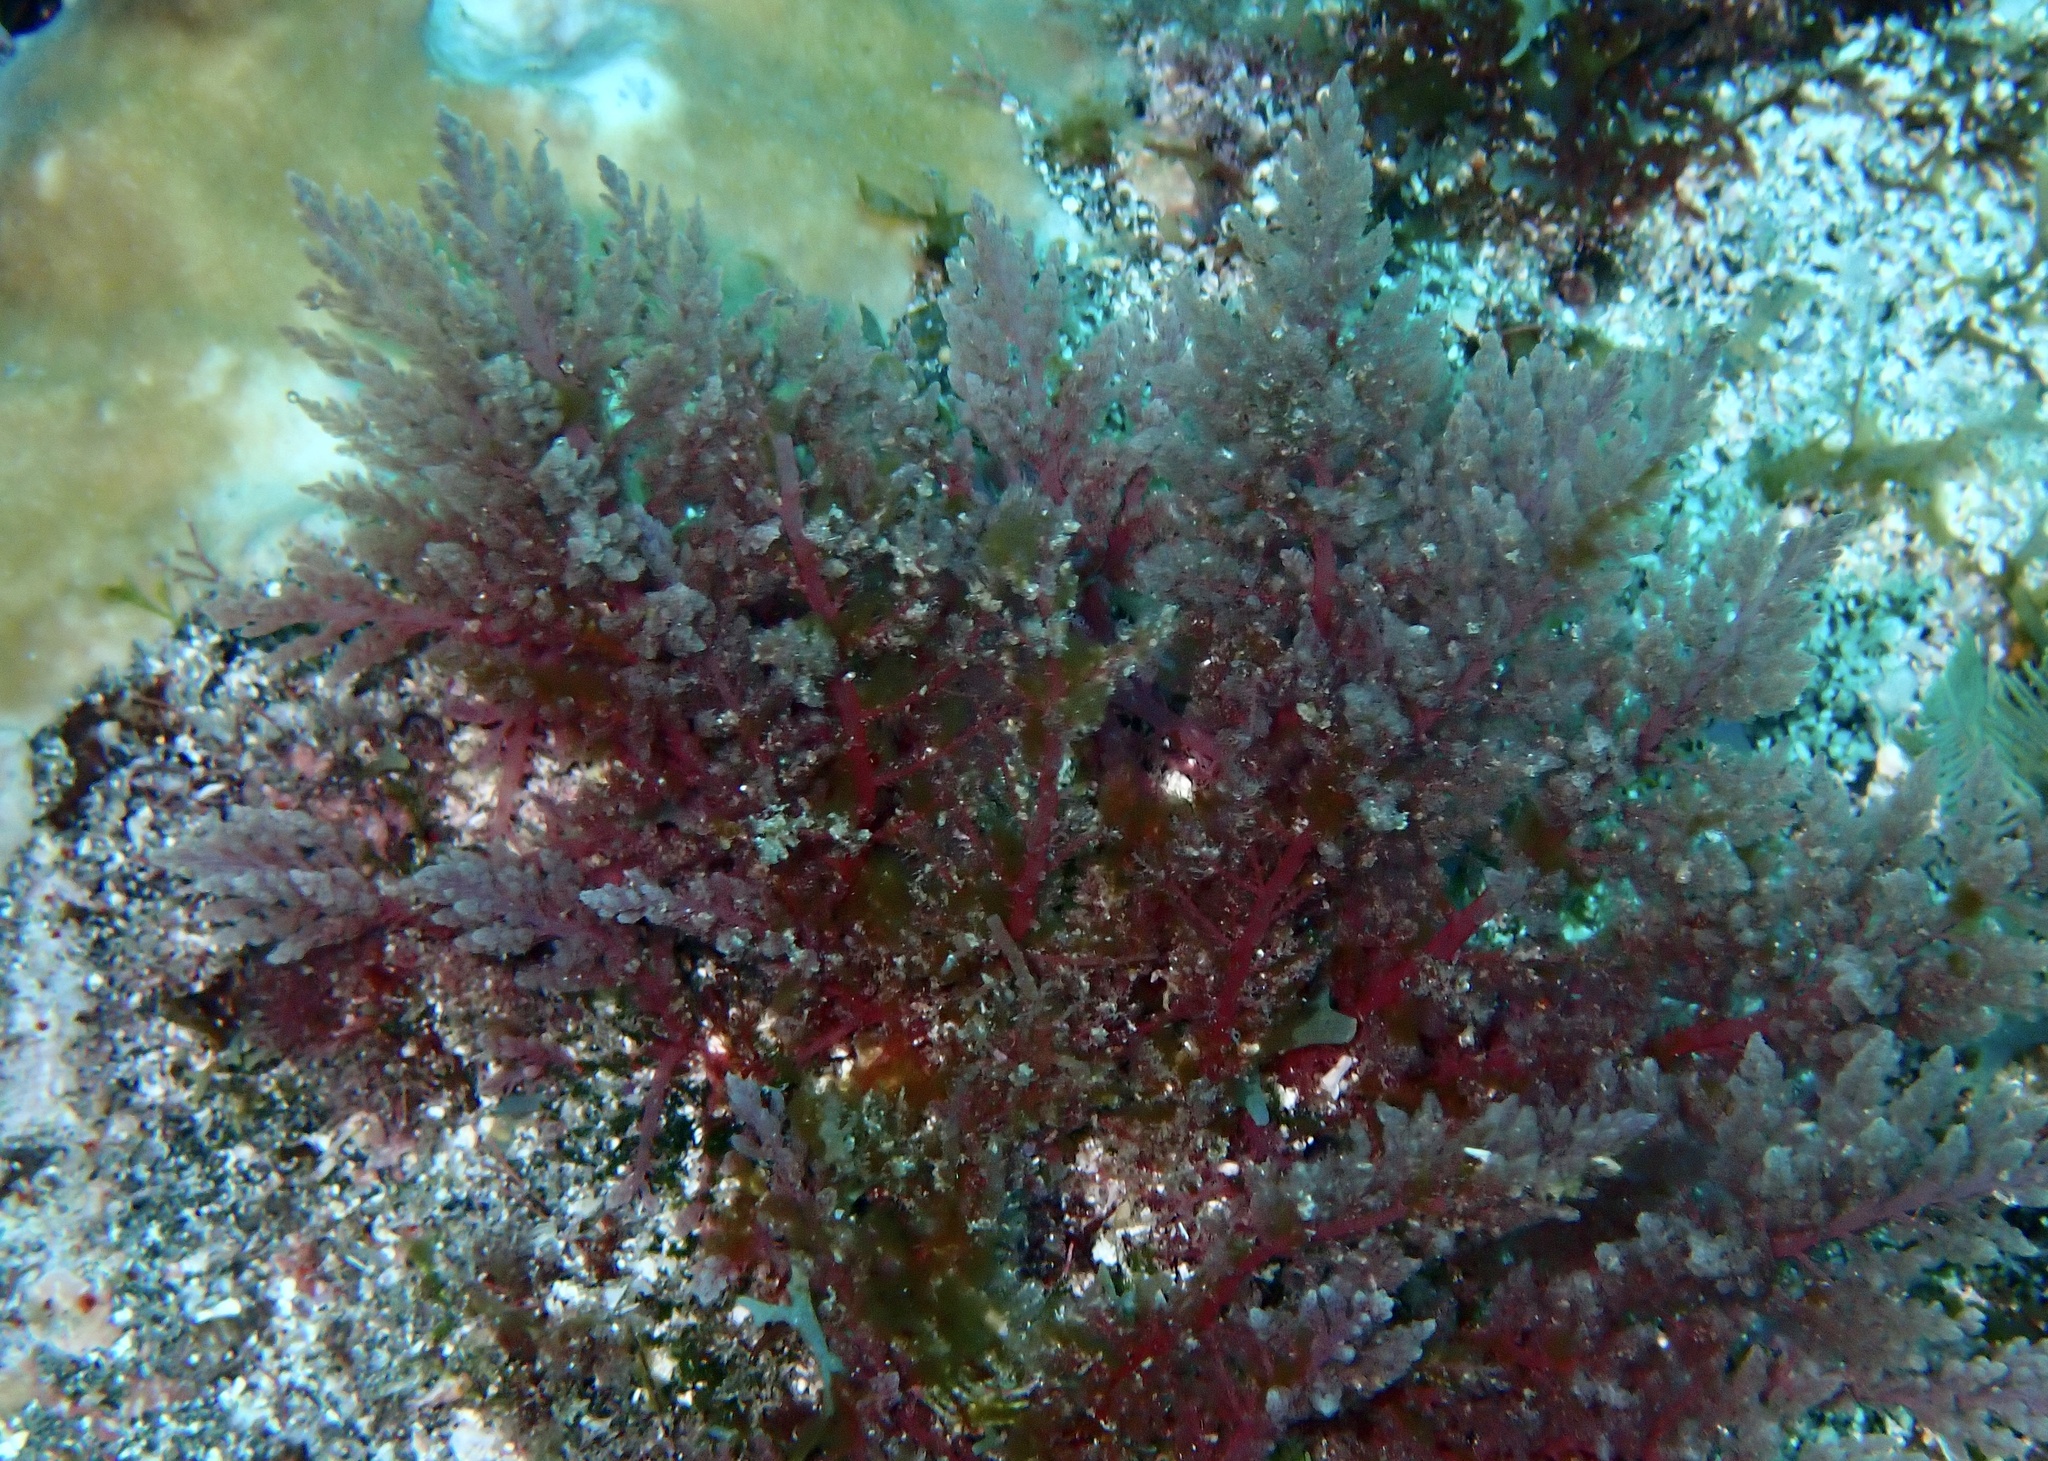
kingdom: Plantae
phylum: Rhodophyta
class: Florideophyceae
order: Bonnemaisoniales
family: Bonnemaisoniaceae
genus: Asparagopsis
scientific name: Asparagopsis taxiformis
